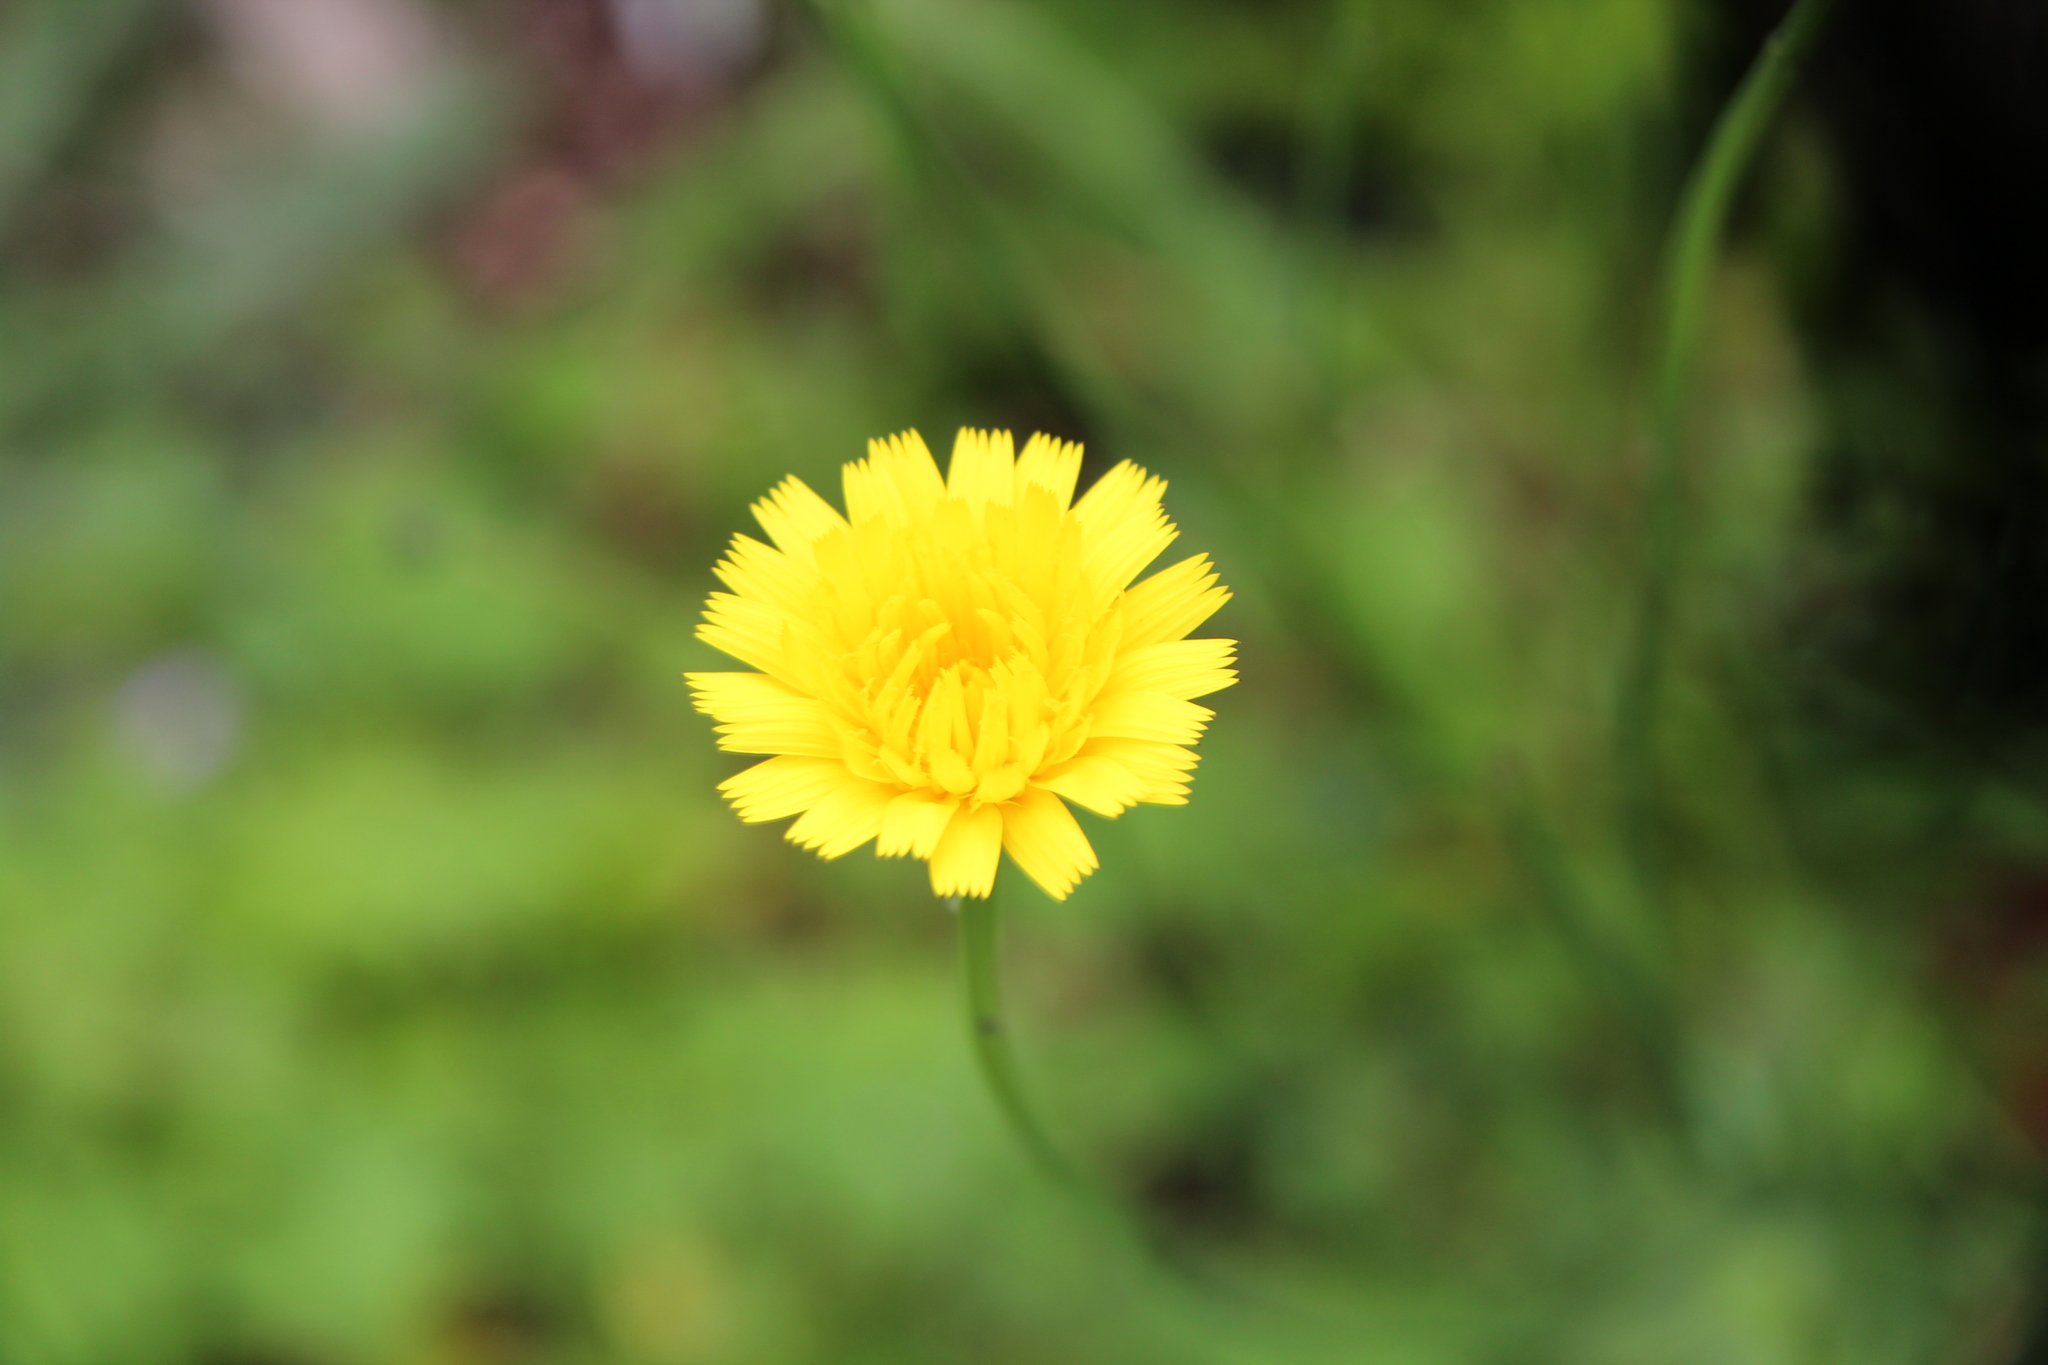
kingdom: Plantae
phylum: Tracheophyta
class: Magnoliopsida
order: Asterales
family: Asteraceae
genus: Hypochaeris
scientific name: Hypochaeris radicata
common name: Flatweed
